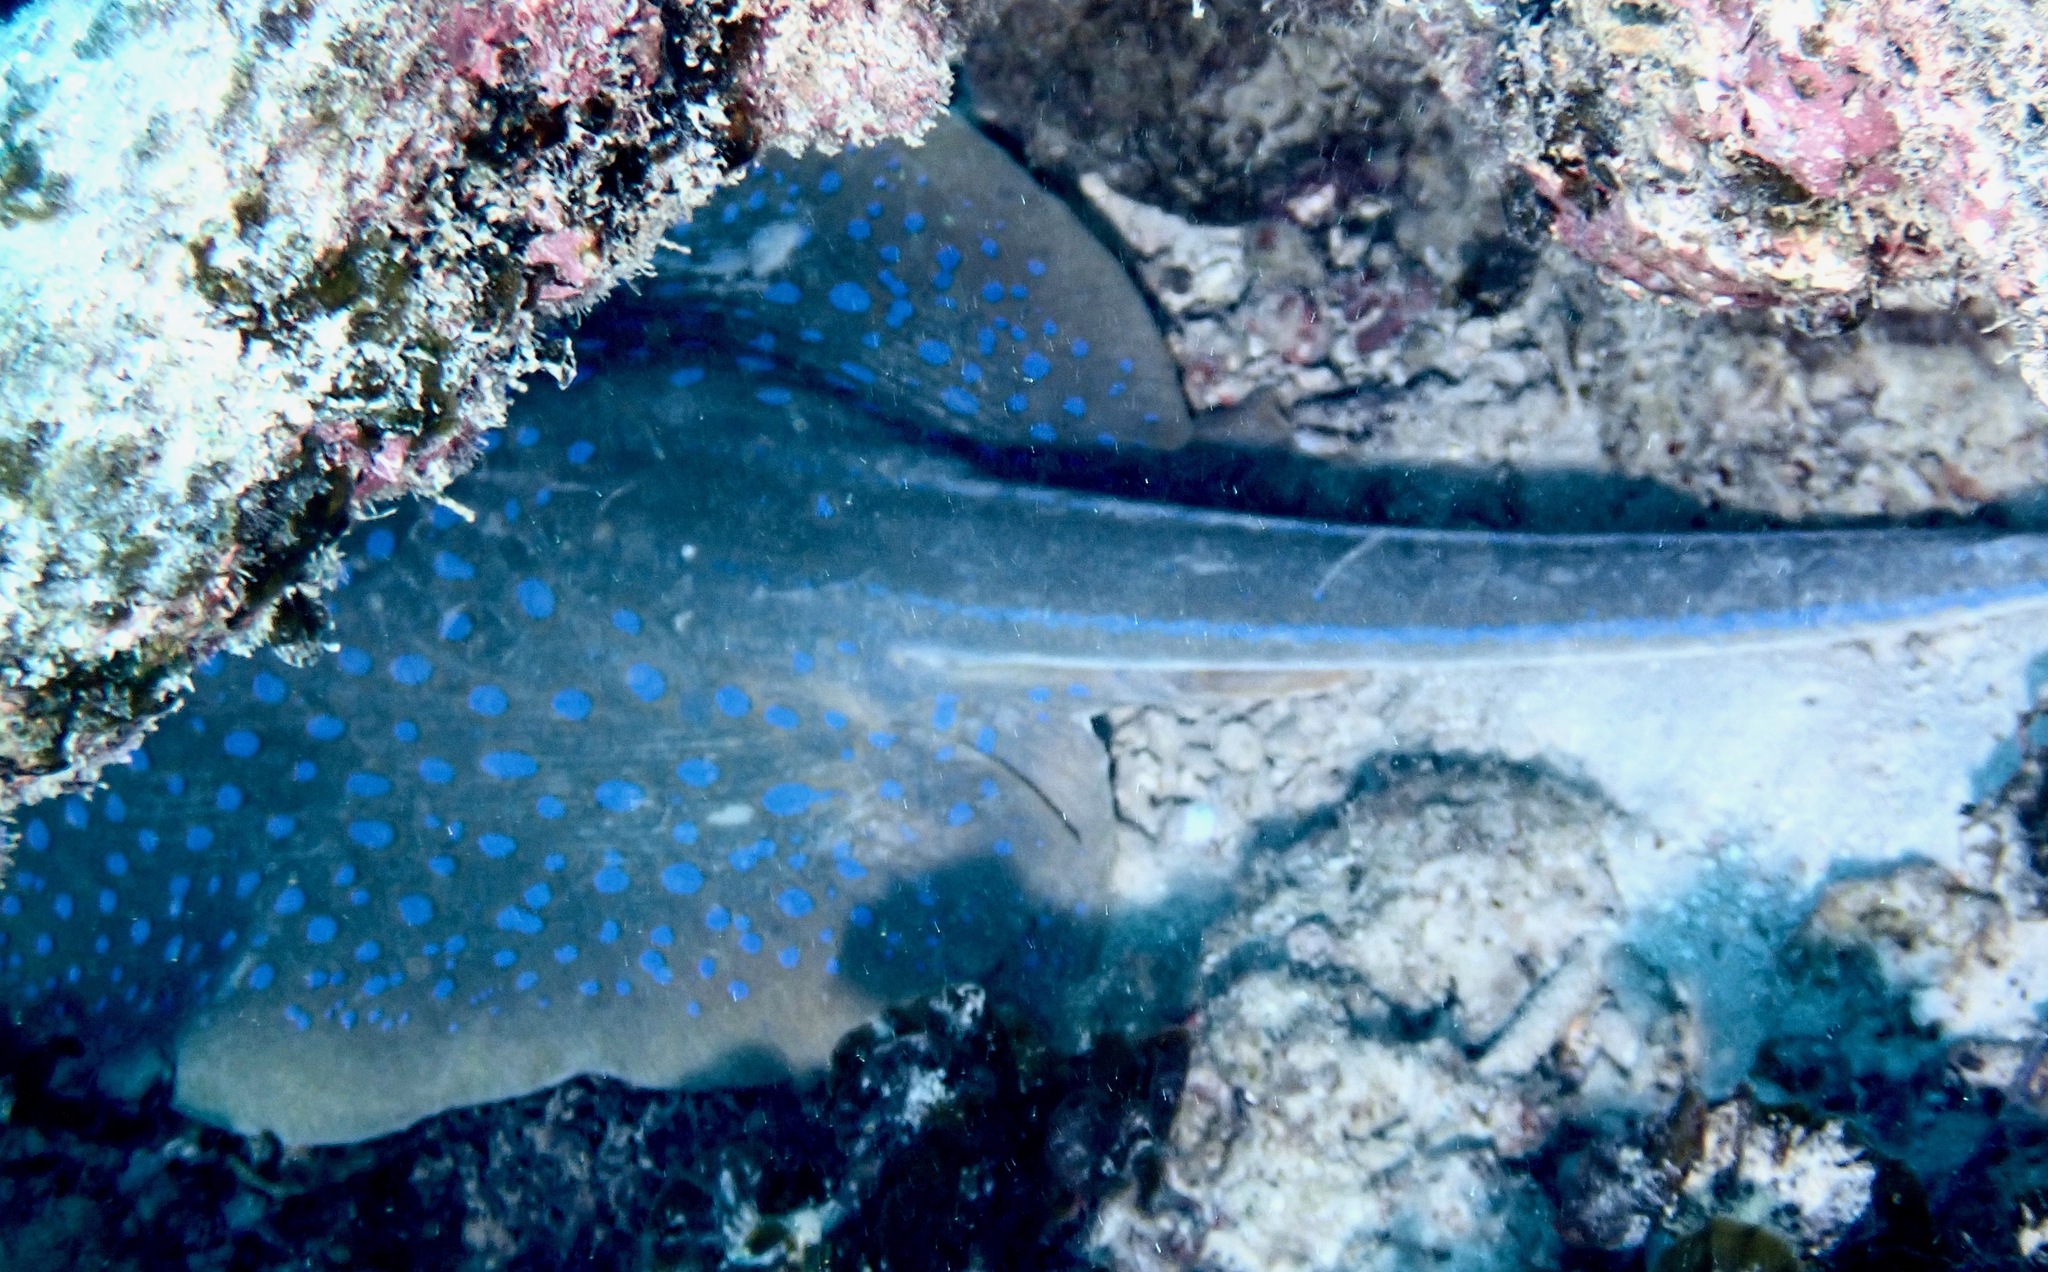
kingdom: Animalia
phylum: Chordata
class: Elasmobranchii
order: Myliobatiformes
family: Dasyatidae
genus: Taeniura
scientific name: Taeniura lymma
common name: Bluespotted ribbontail ray
